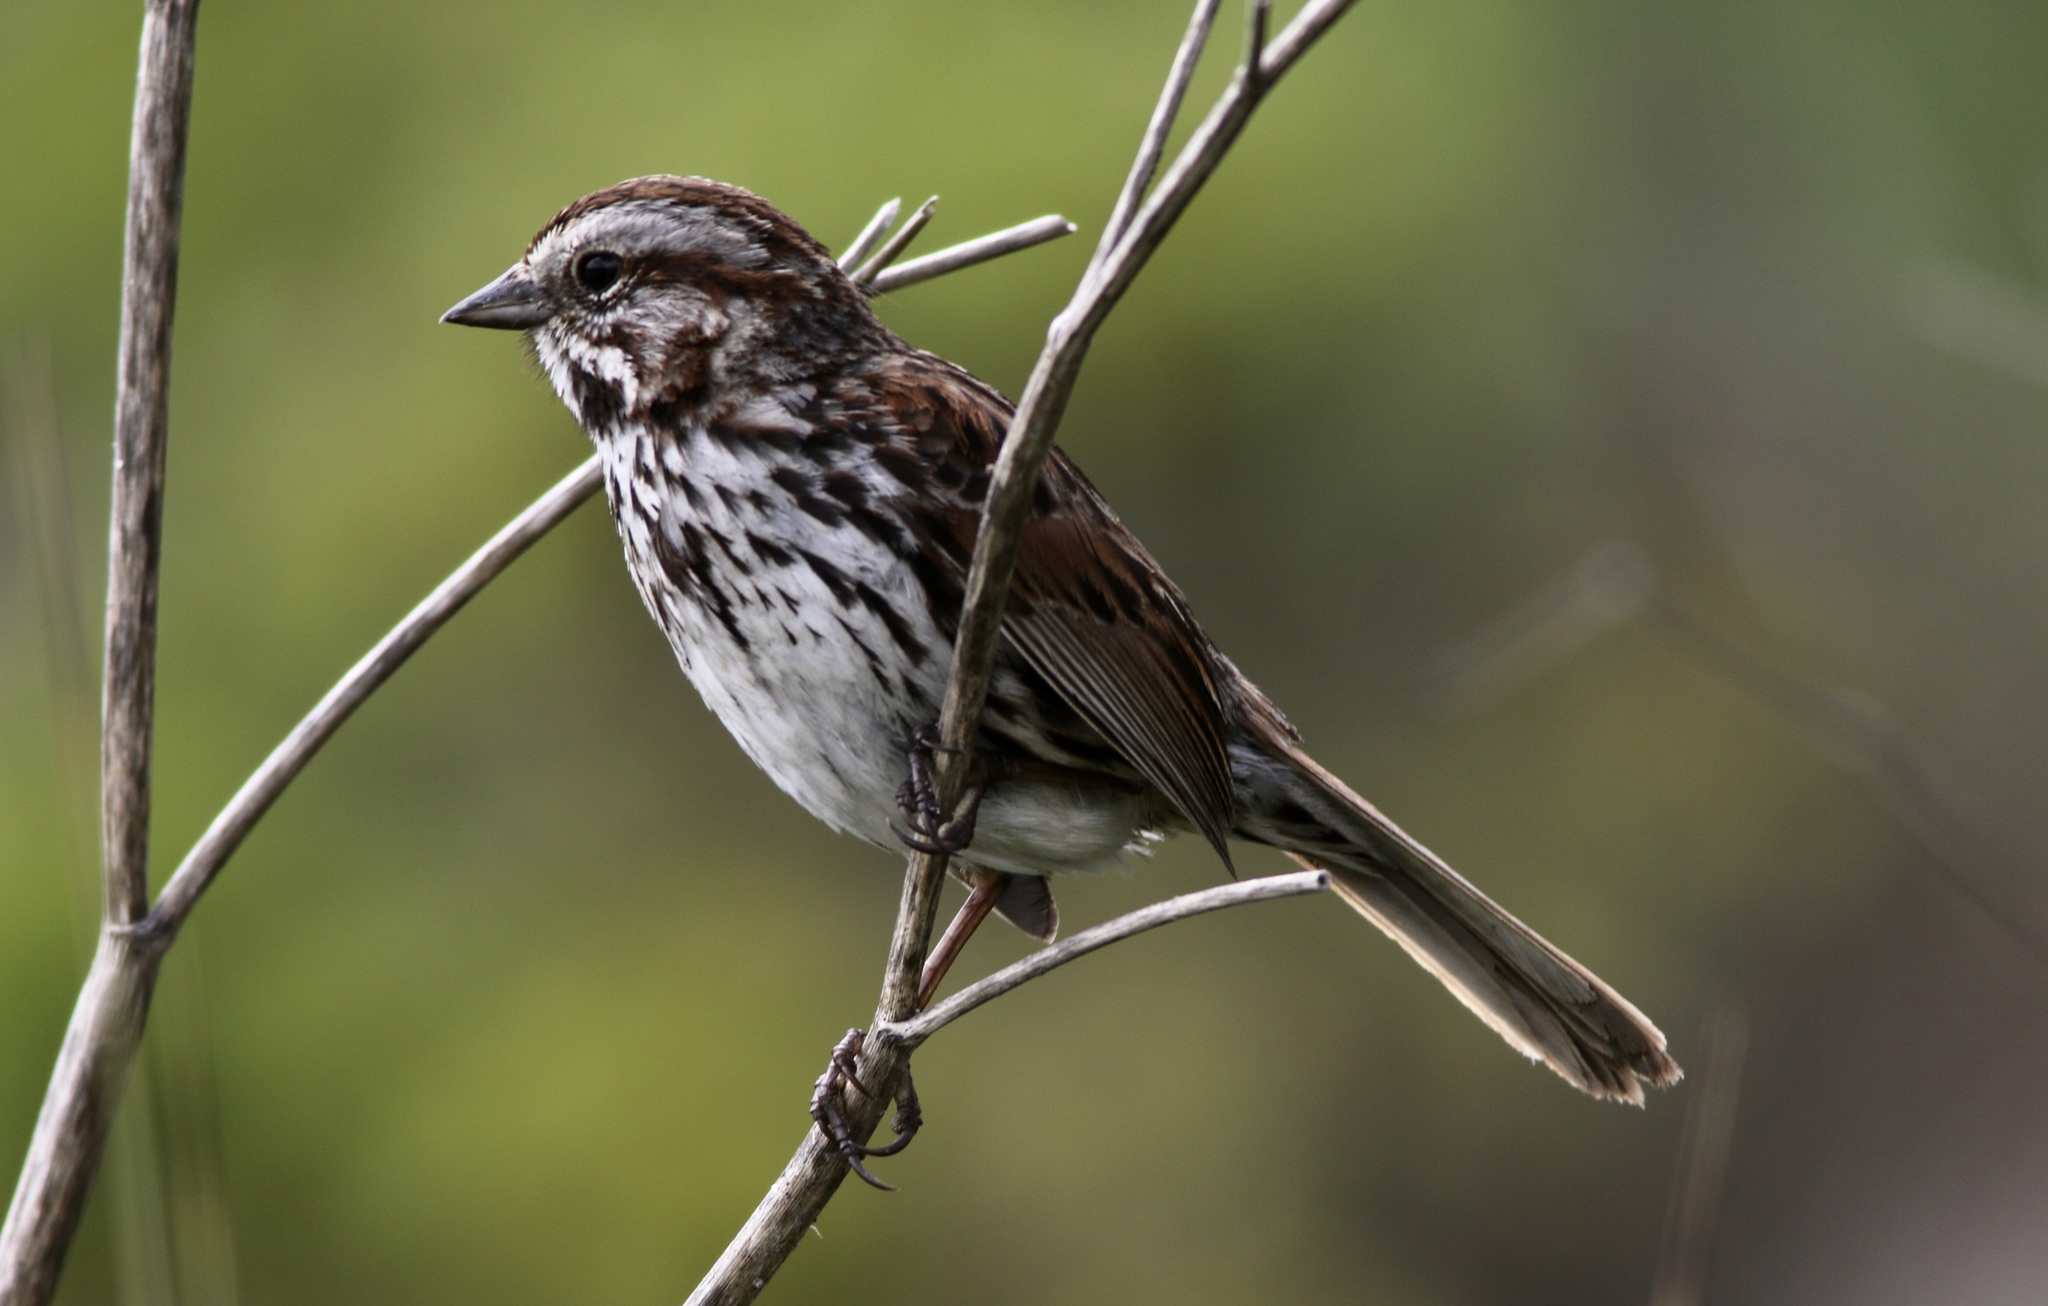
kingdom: Animalia
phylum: Chordata
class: Aves
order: Passeriformes
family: Passerellidae
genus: Melospiza
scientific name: Melospiza melodia
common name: Song sparrow
